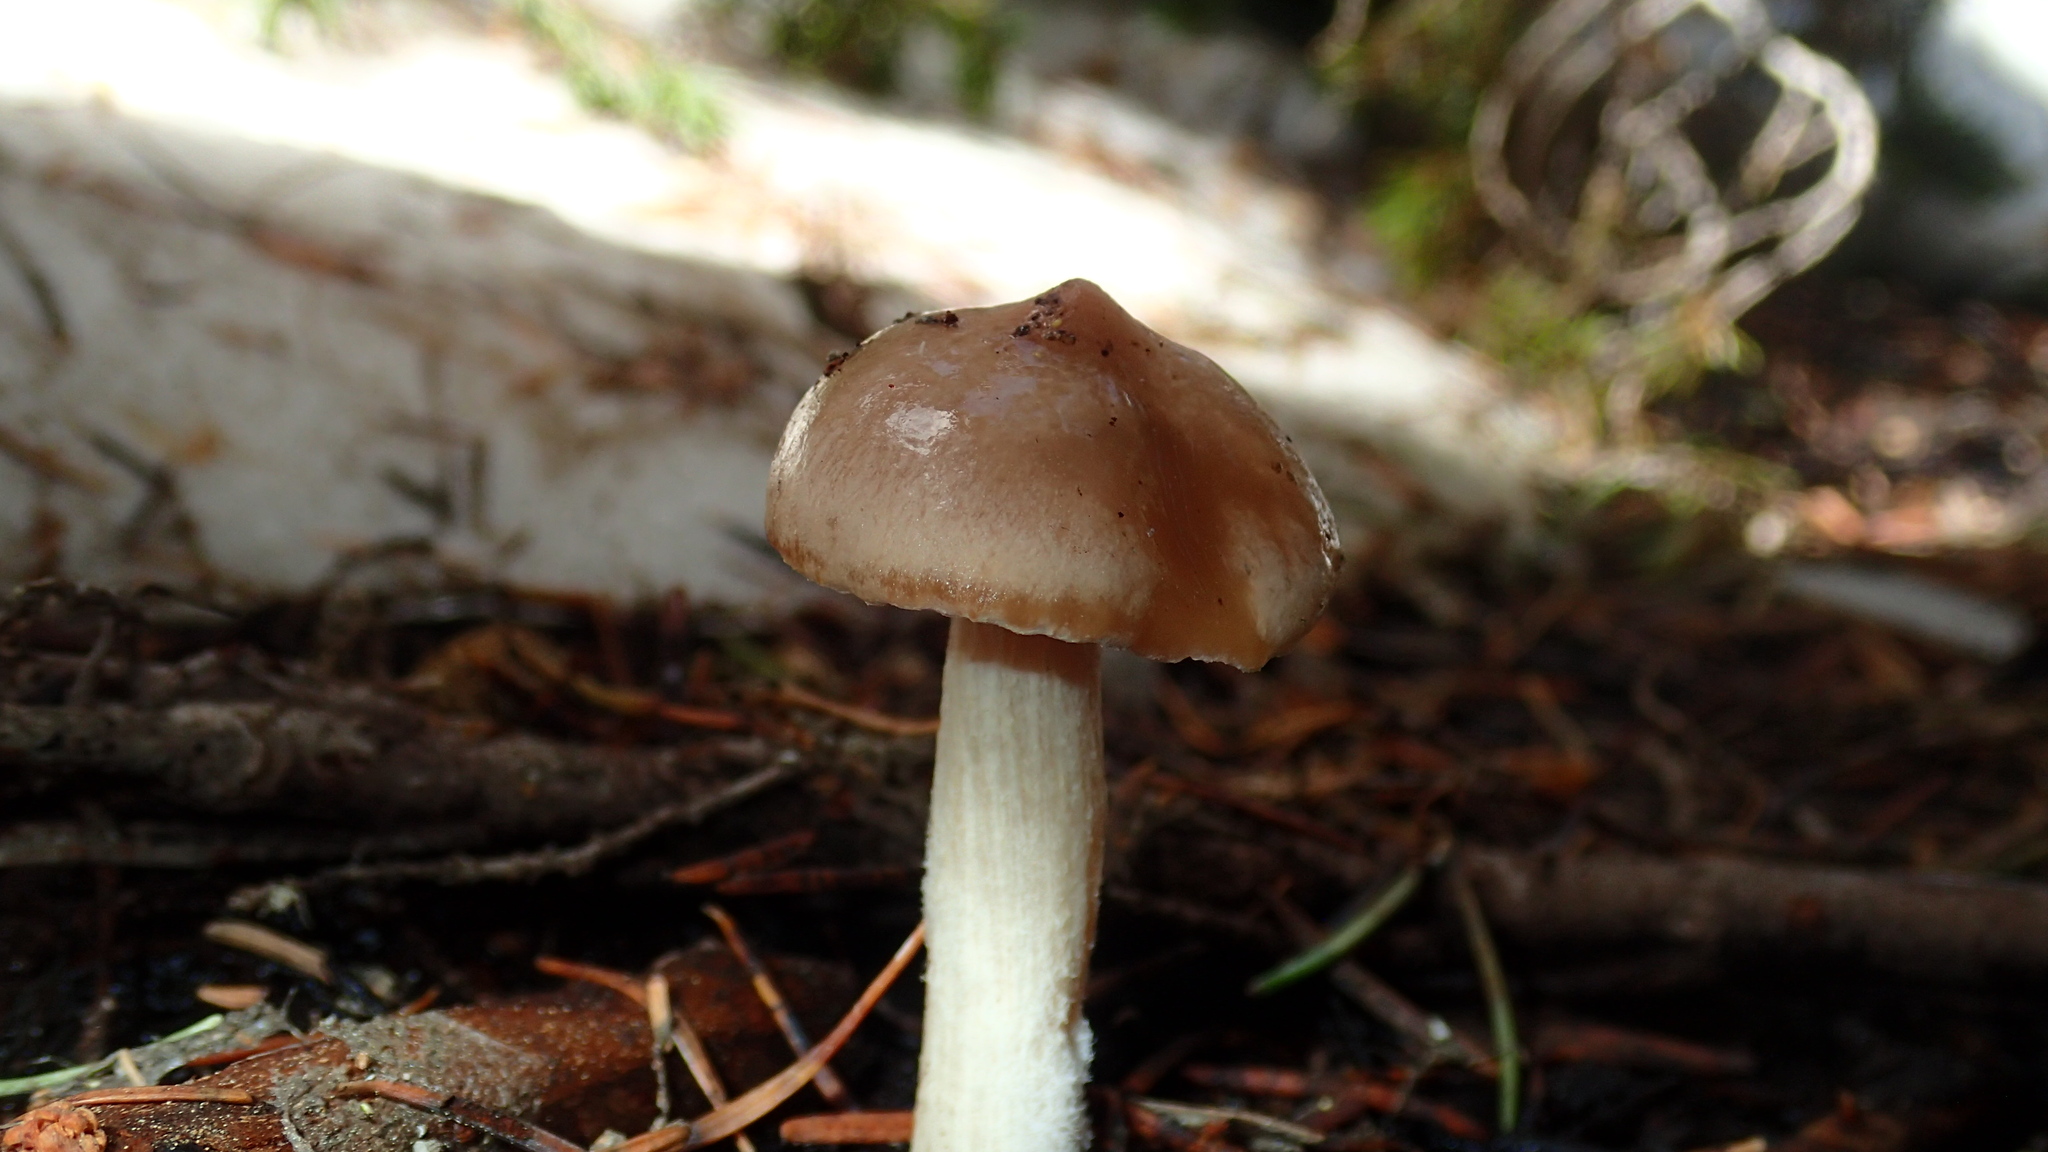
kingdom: Fungi
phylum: Basidiomycota
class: Agaricomycetes
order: Agaricales
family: Hygrophoraceae
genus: Hygrophorus
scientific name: Hygrophorus goetzei
